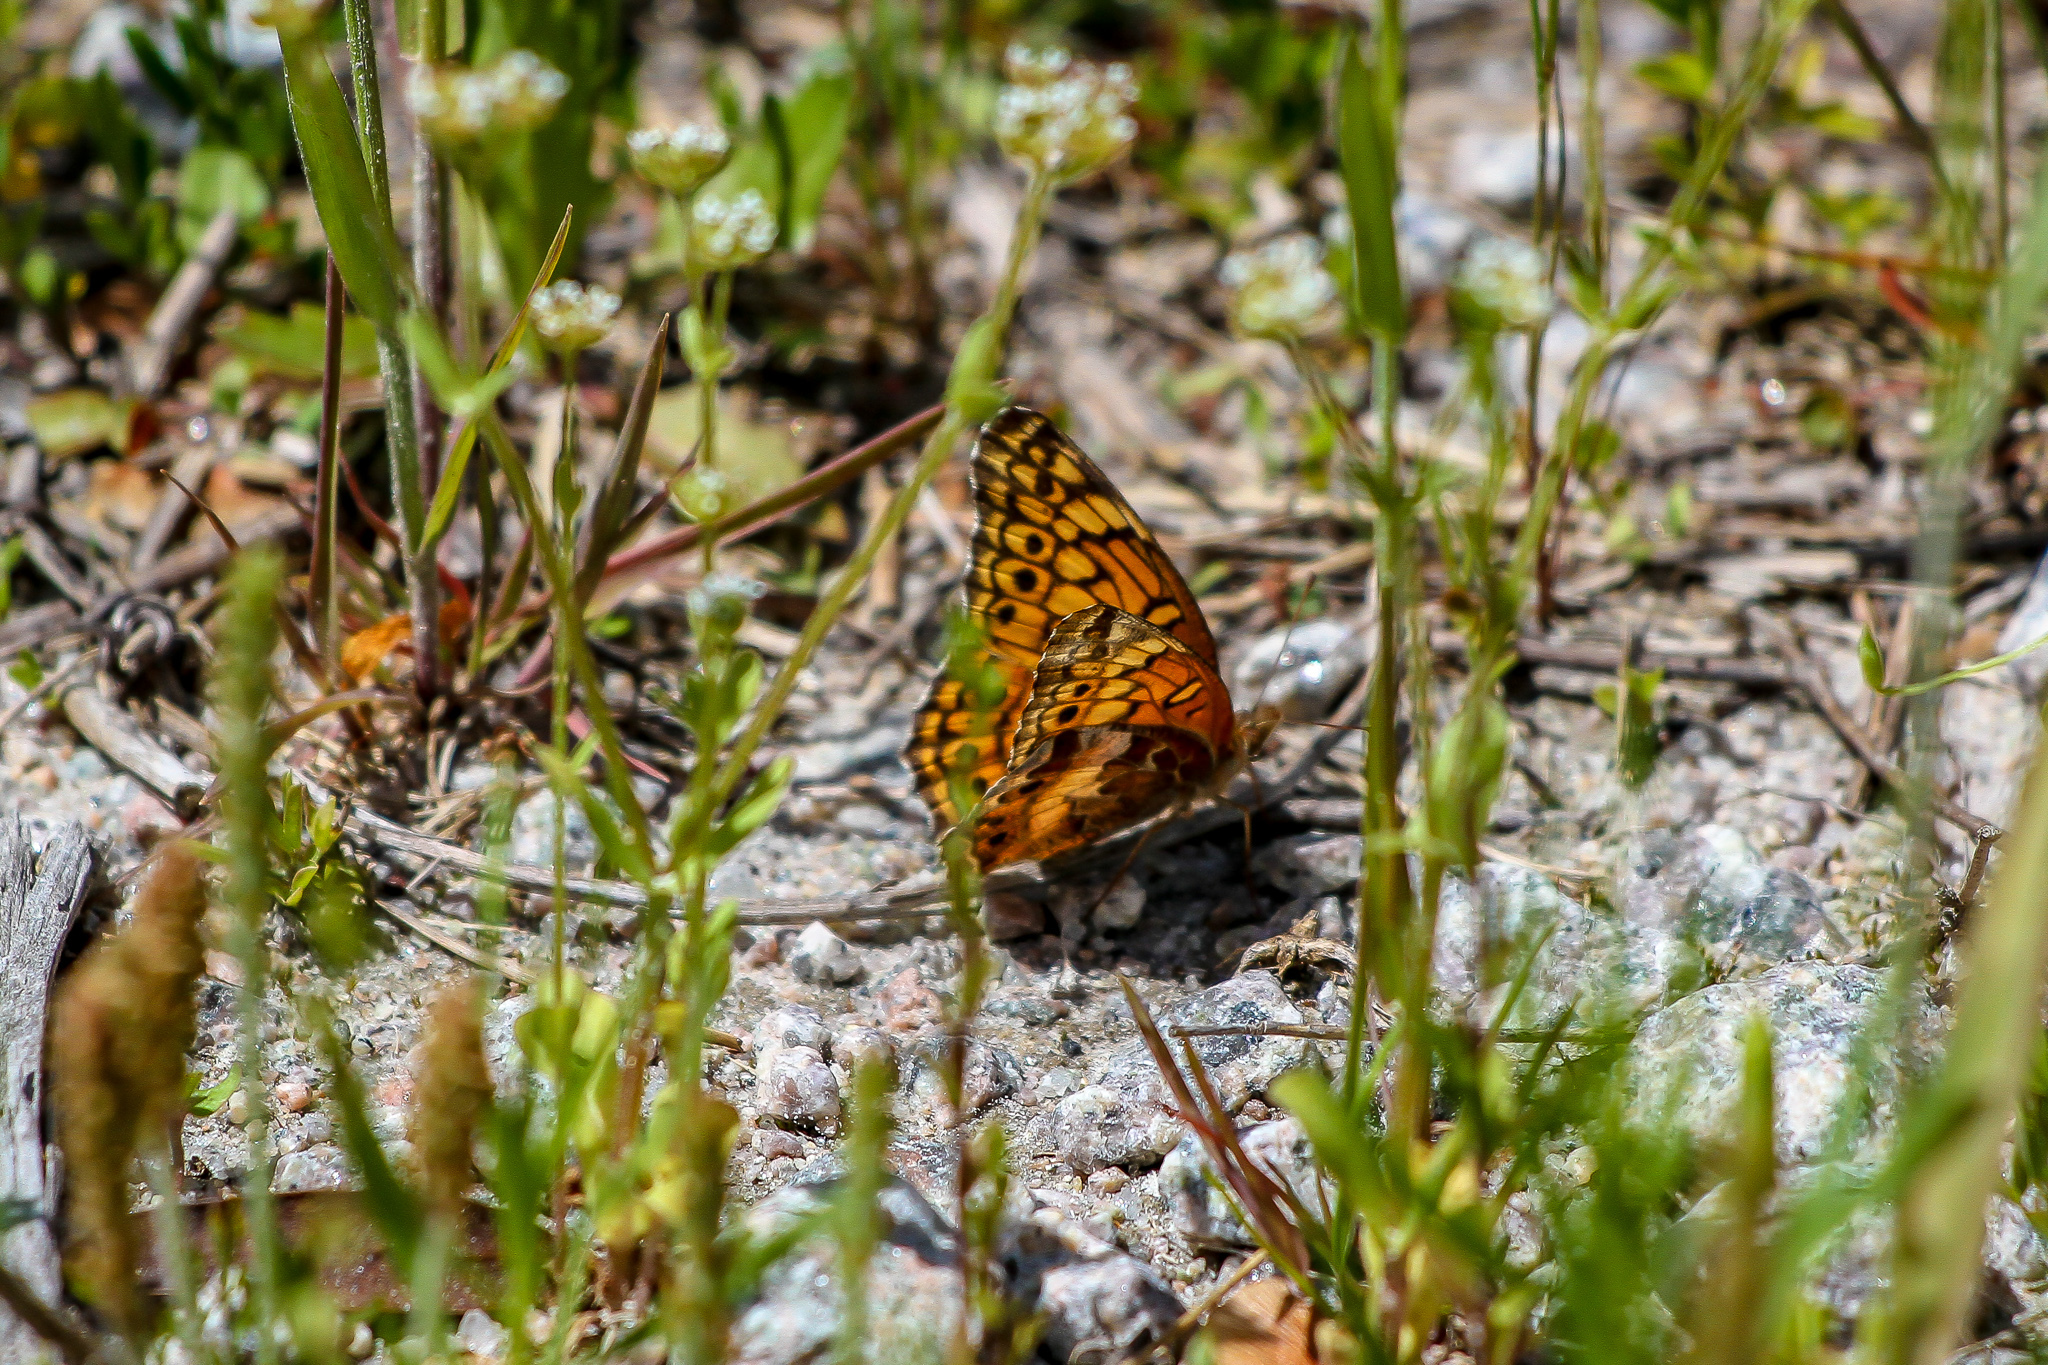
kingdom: Animalia
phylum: Arthropoda
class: Insecta
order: Lepidoptera
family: Nymphalidae
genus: Euptoieta
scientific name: Euptoieta claudia
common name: Variegated fritillary
